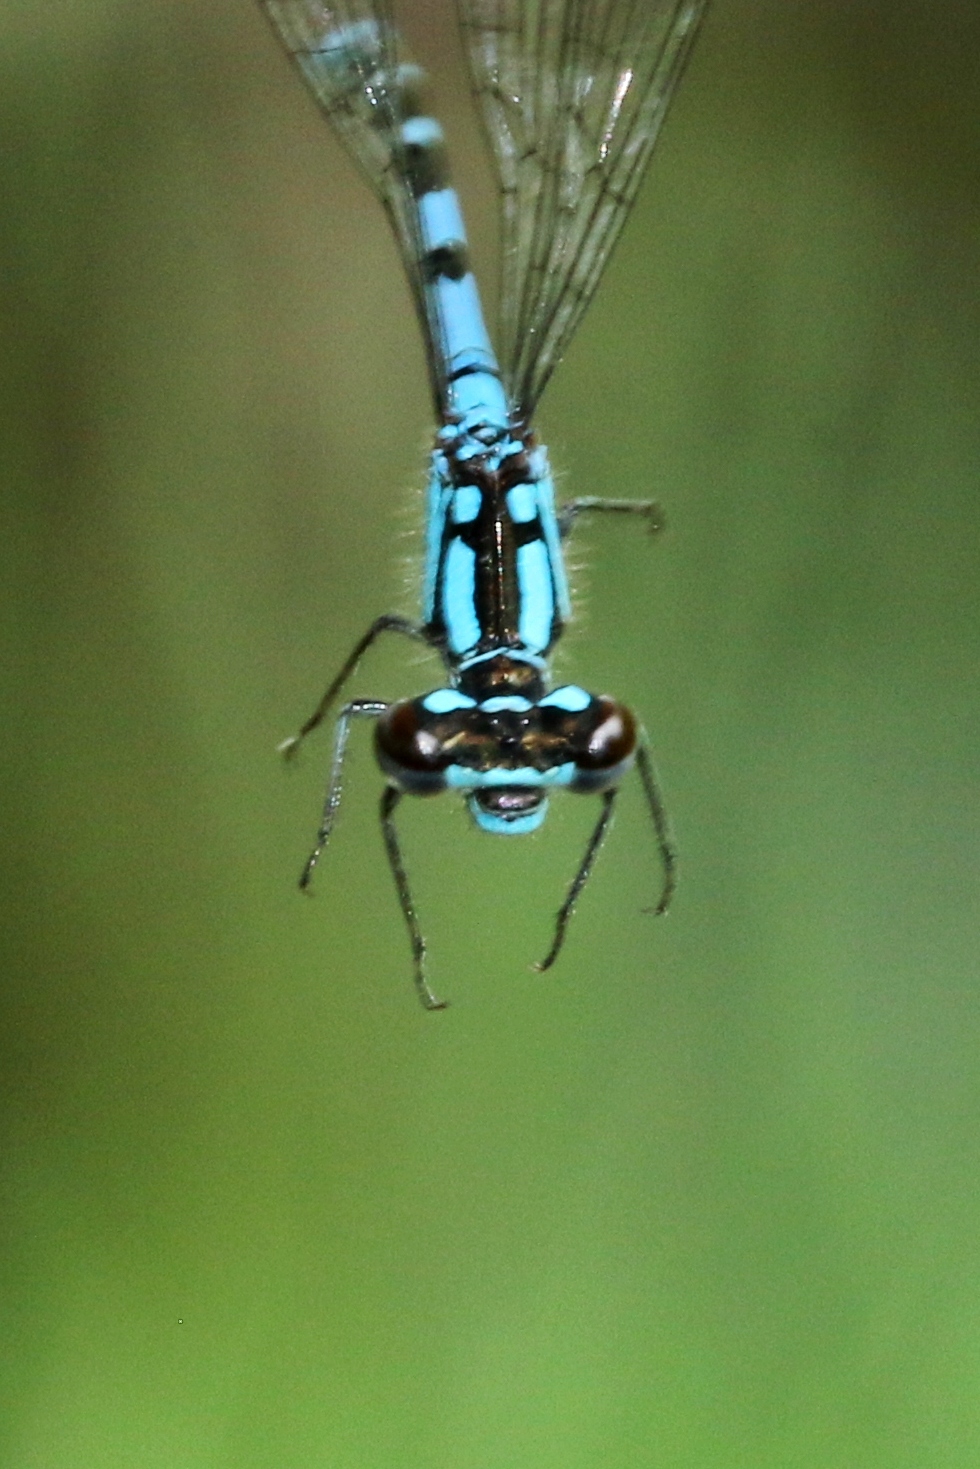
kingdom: Animalia
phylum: Arthropoda
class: Insecta
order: Odonata
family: Coenagrionidae
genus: Coenagrion
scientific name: Coenagrion interrogatum
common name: Subarctic bluet
